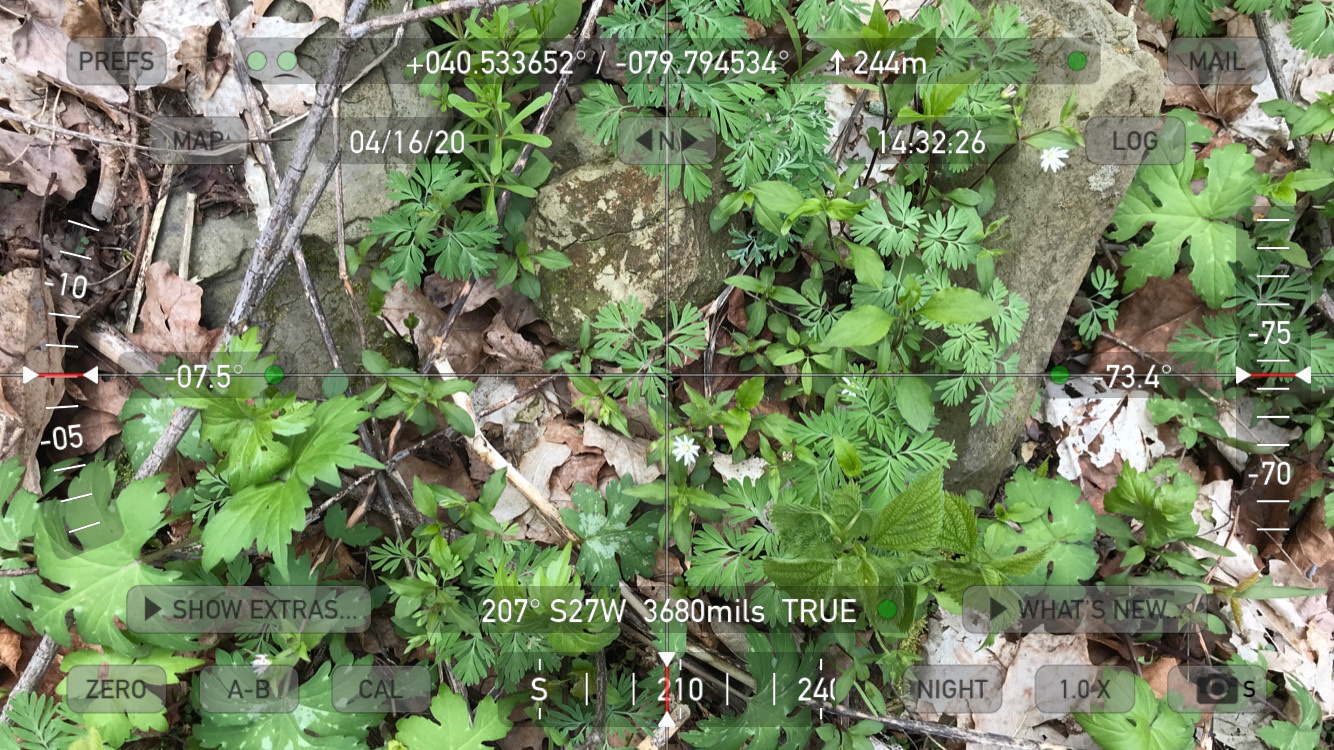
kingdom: Plantae
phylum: Tracheophyta
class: Magnoliopsida
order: Caryophyllales
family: Caryophyllaceae
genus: Stellaria
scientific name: Stellaria pubera
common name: Star chickweed
